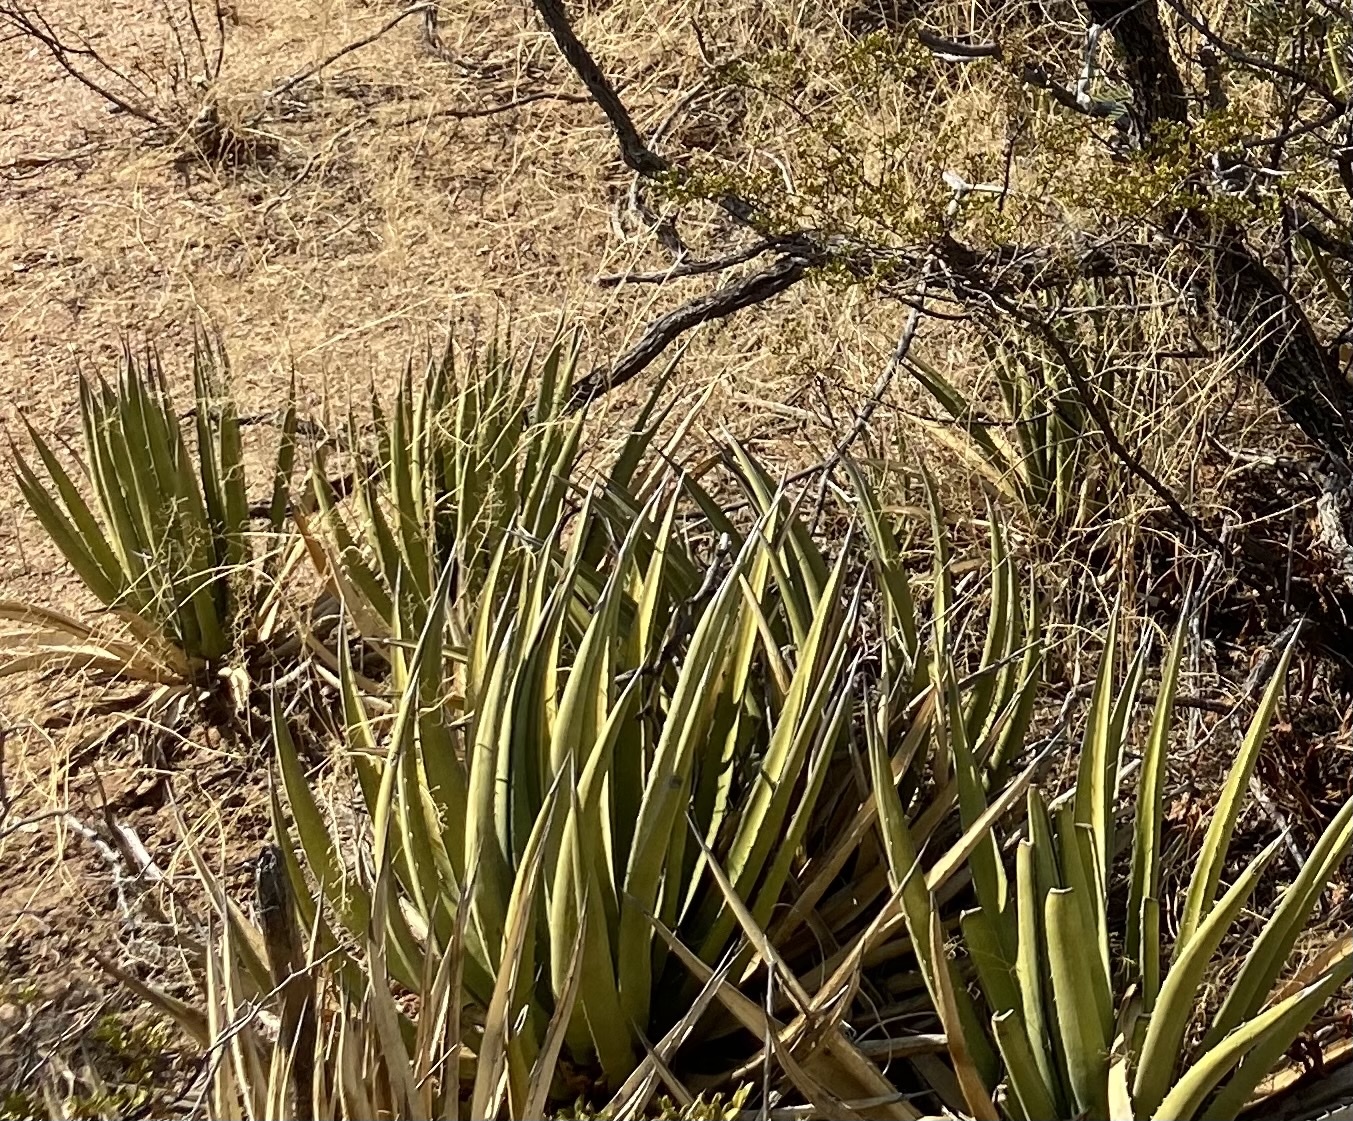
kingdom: Plantae
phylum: Tracheophyta
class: Liliopsida
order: Asparagales
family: Asparagaceae
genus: Agave
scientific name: Agave lechuguilla
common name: Lecheguilla agave
